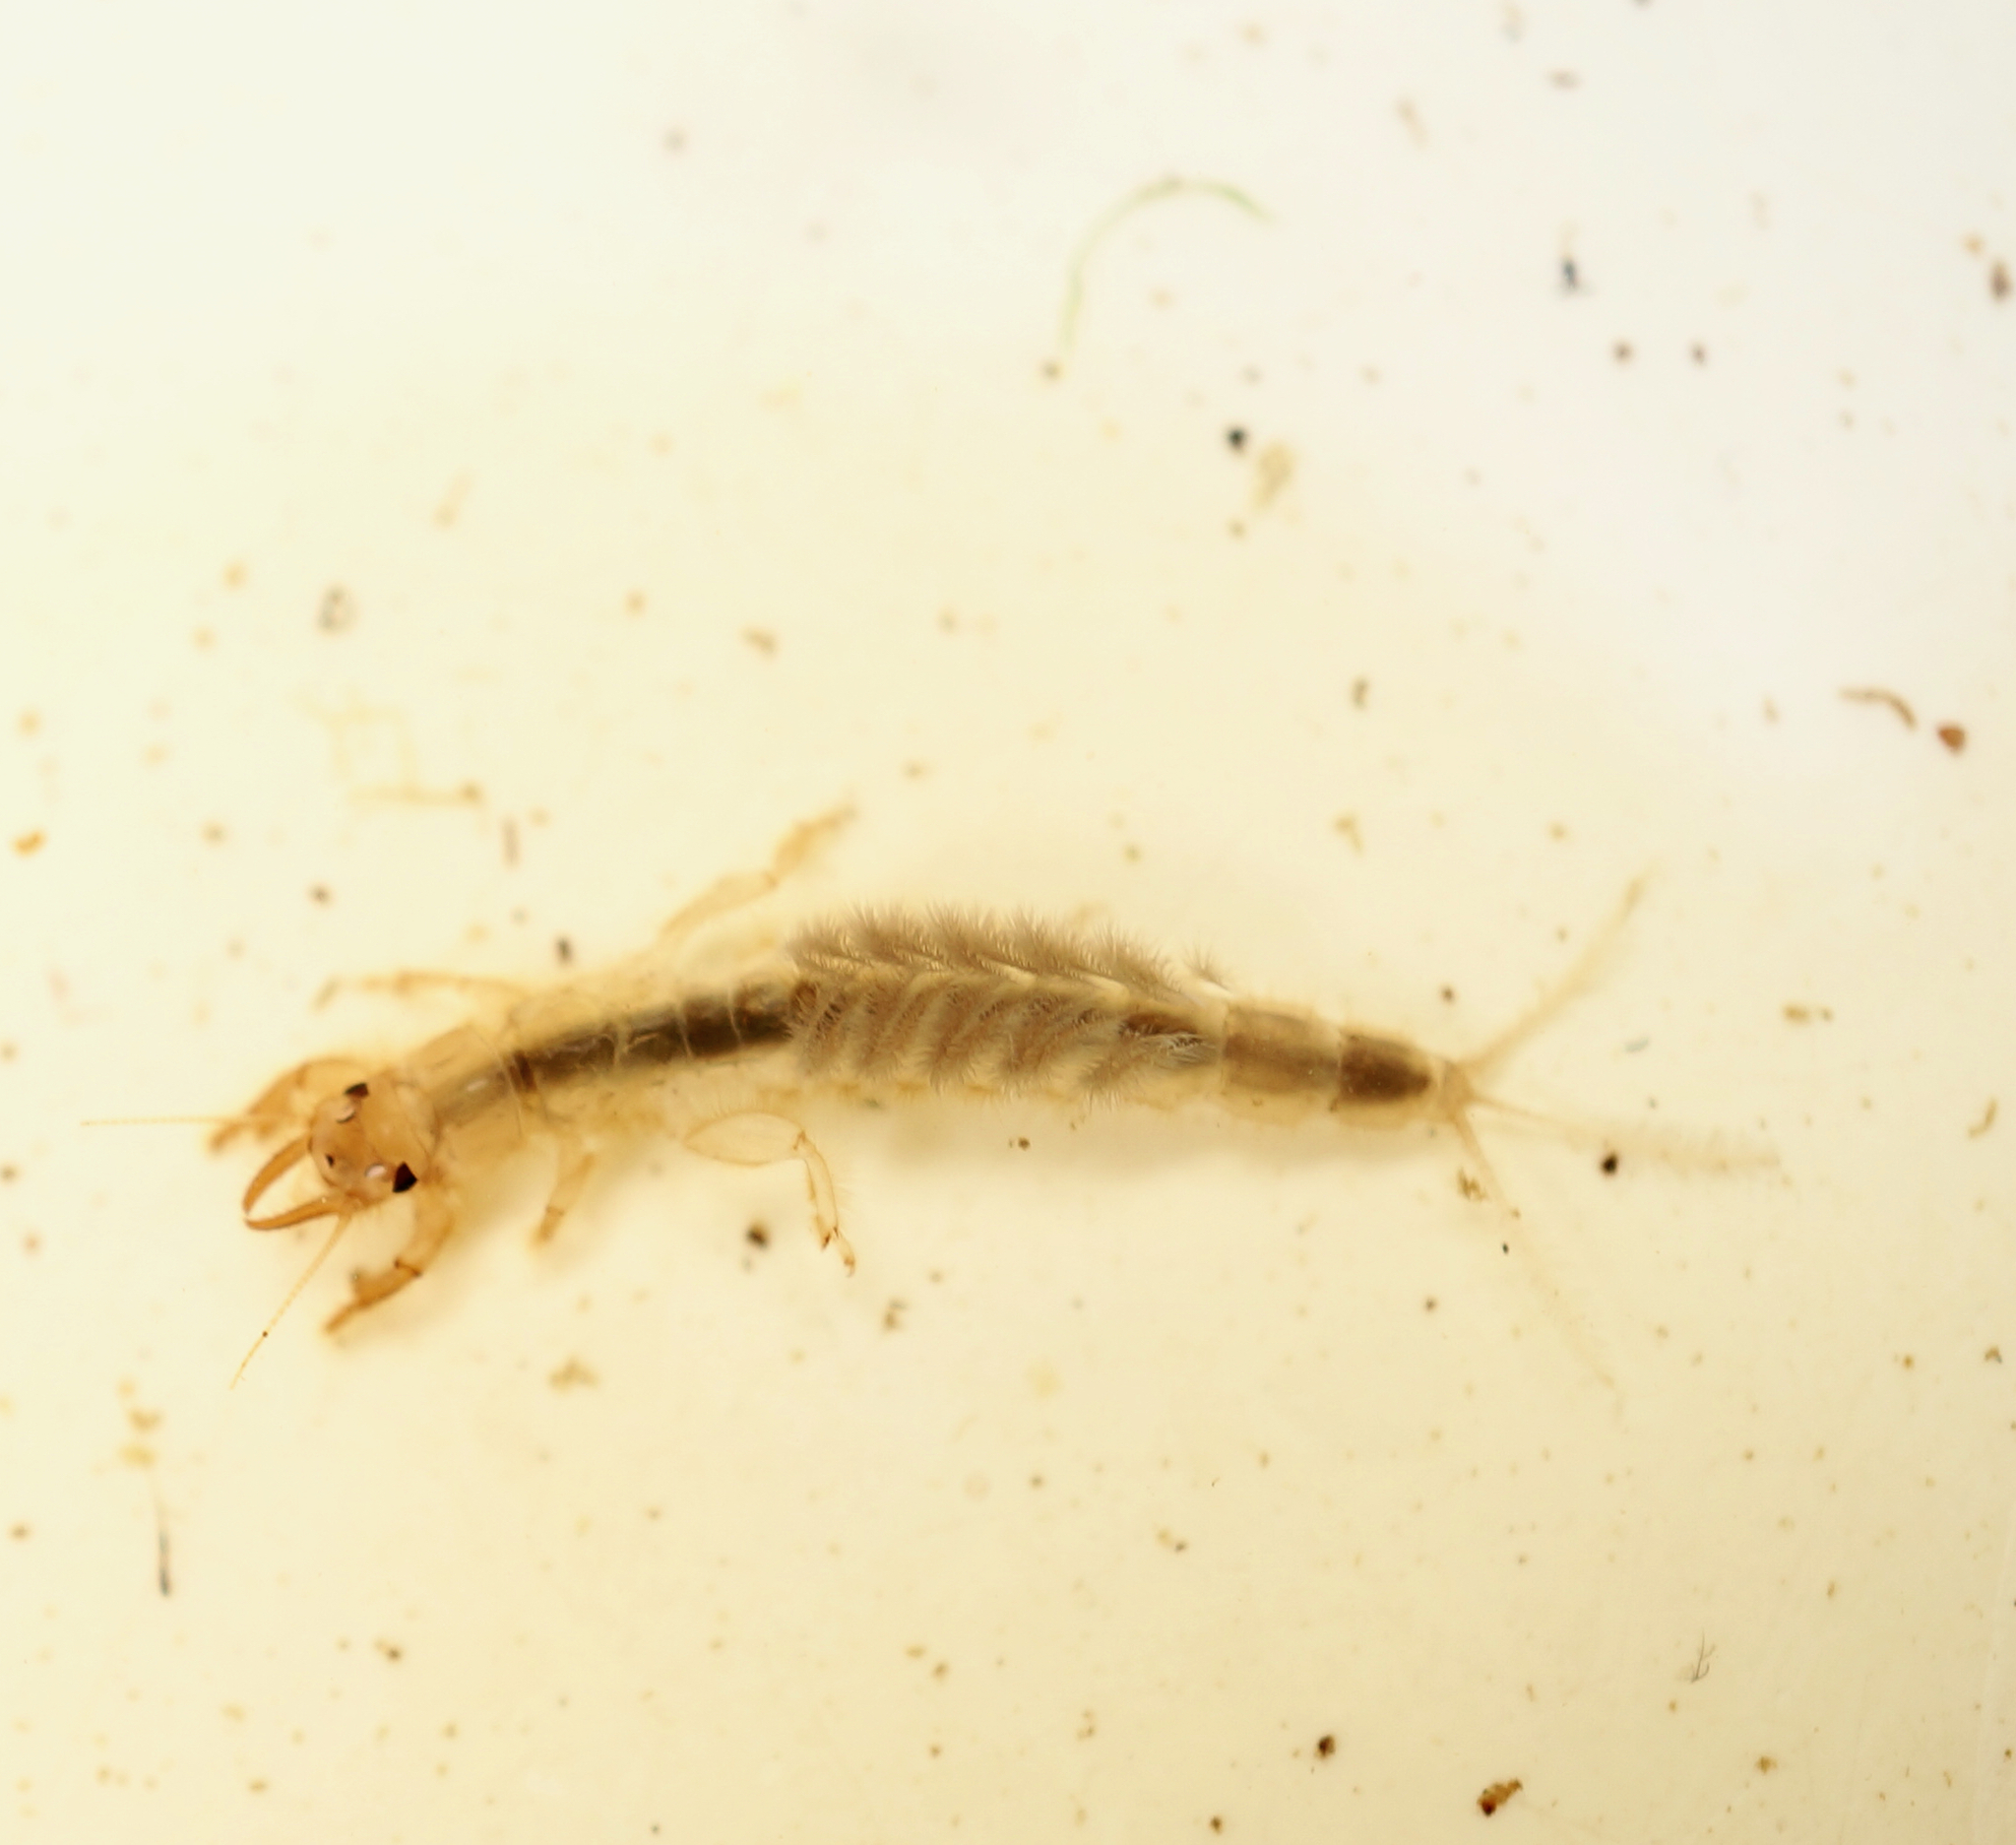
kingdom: Animalia
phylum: Arthropoda
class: Insecta
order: Ephemeroptera
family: Ichthybotidae
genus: Ichthybotus
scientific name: Ichthybotus hudsoni
